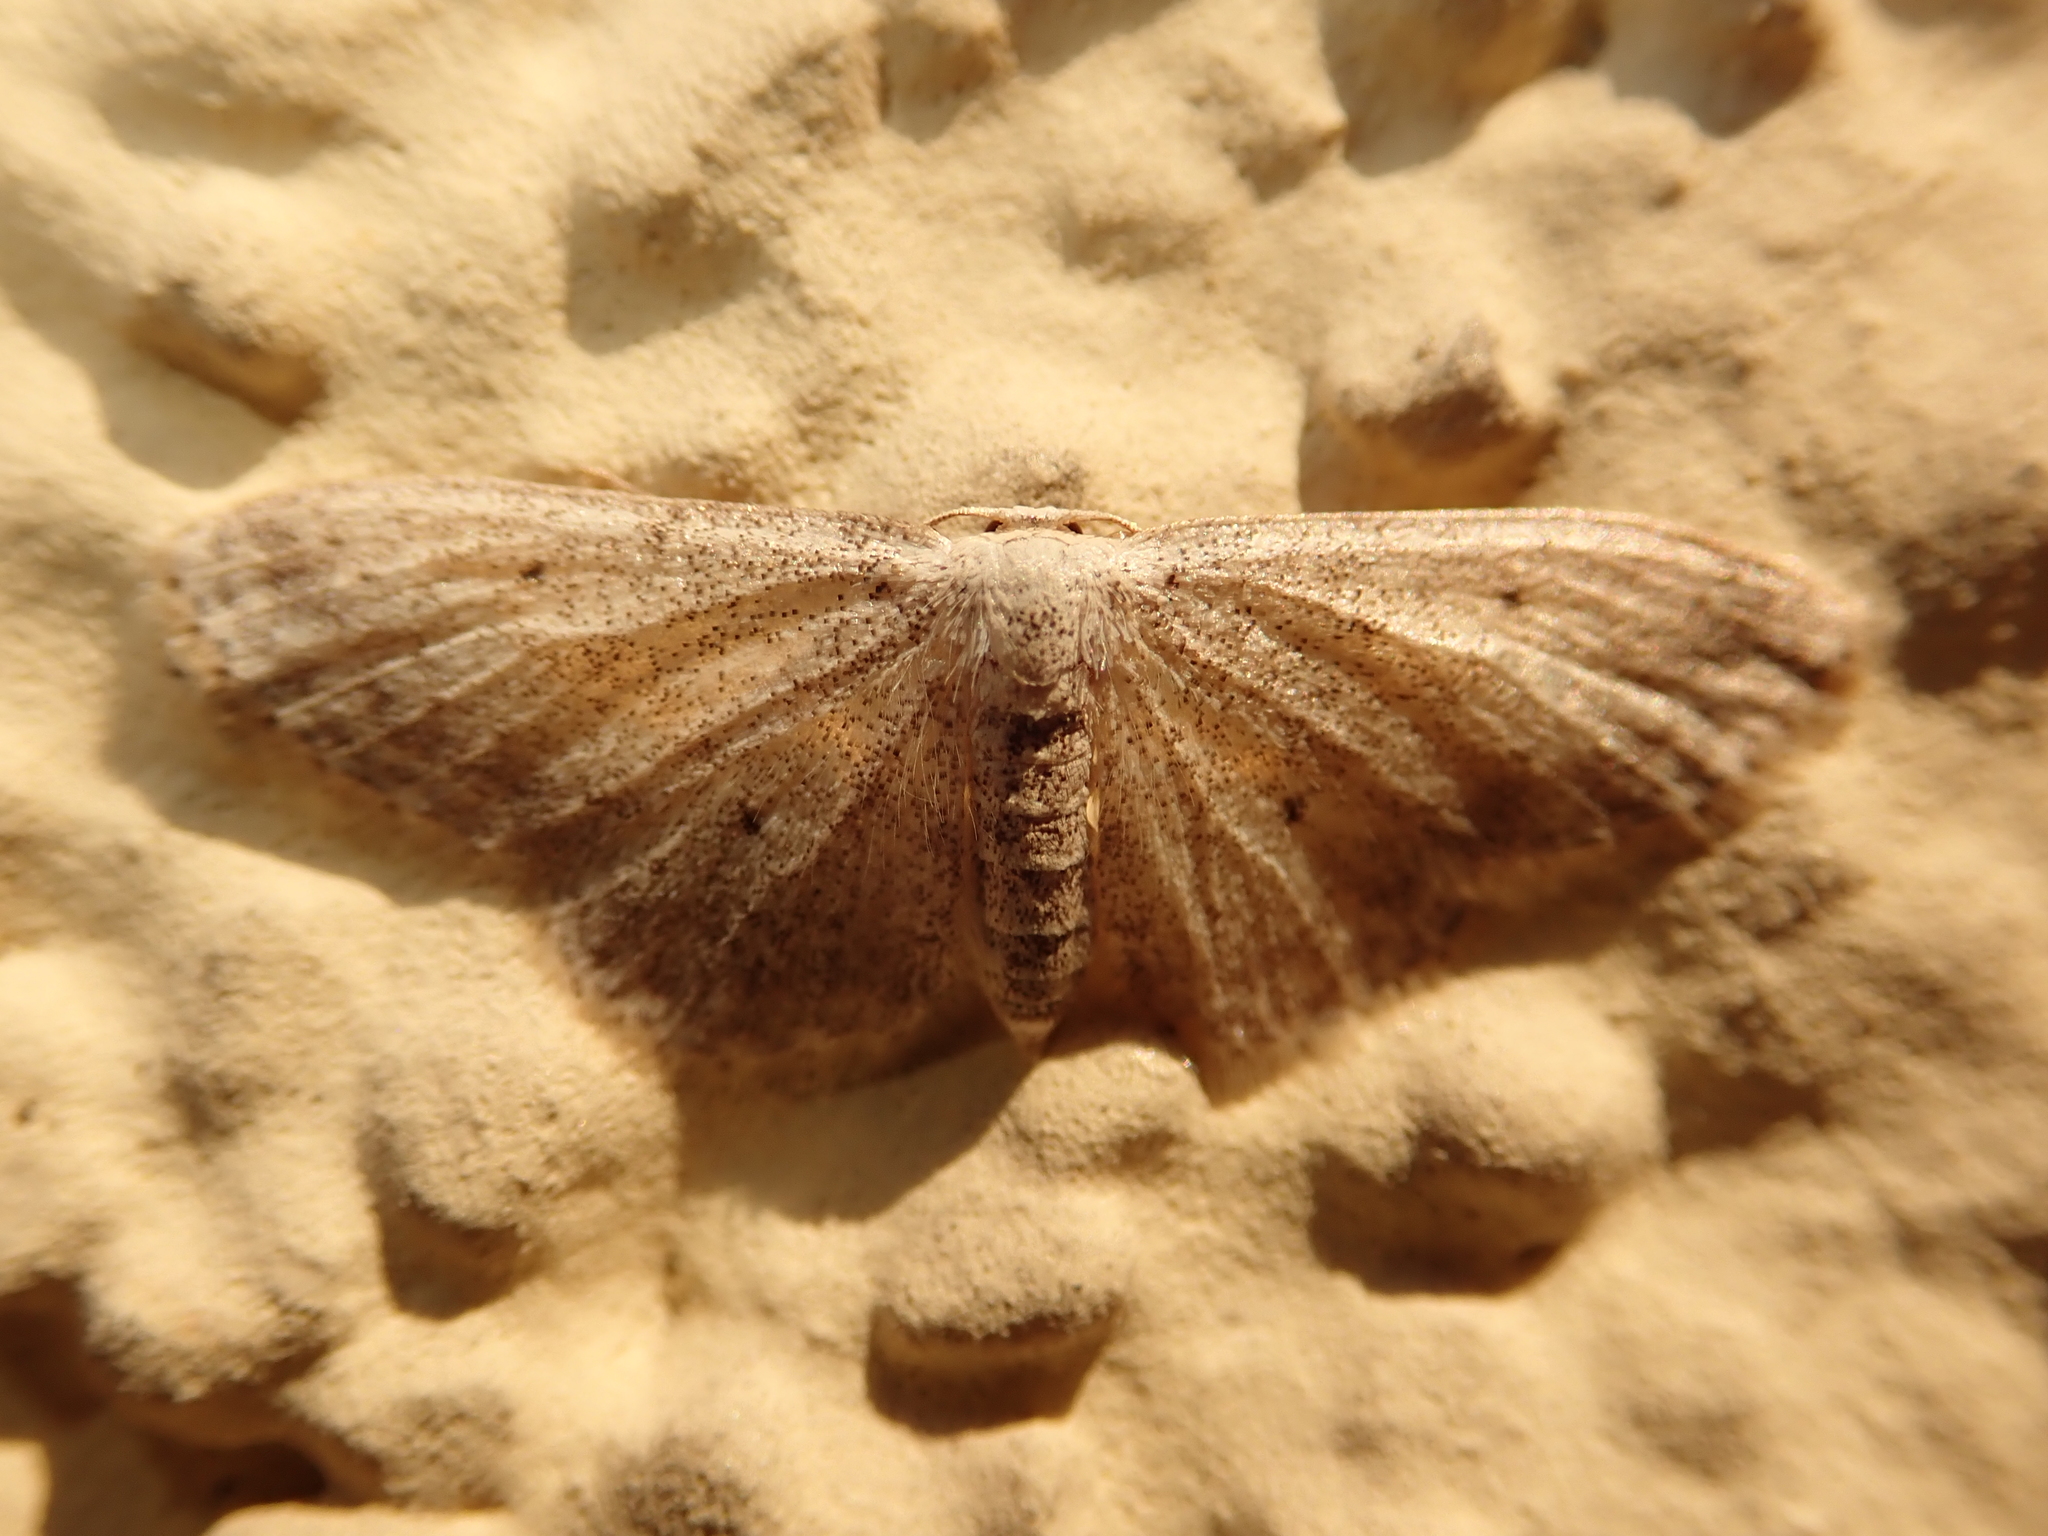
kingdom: Animalia
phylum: Arthropoda
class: Insecta
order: Lepidoptera
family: Geometridae
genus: Idaea
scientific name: Idaea seriata
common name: Small dusty wave
